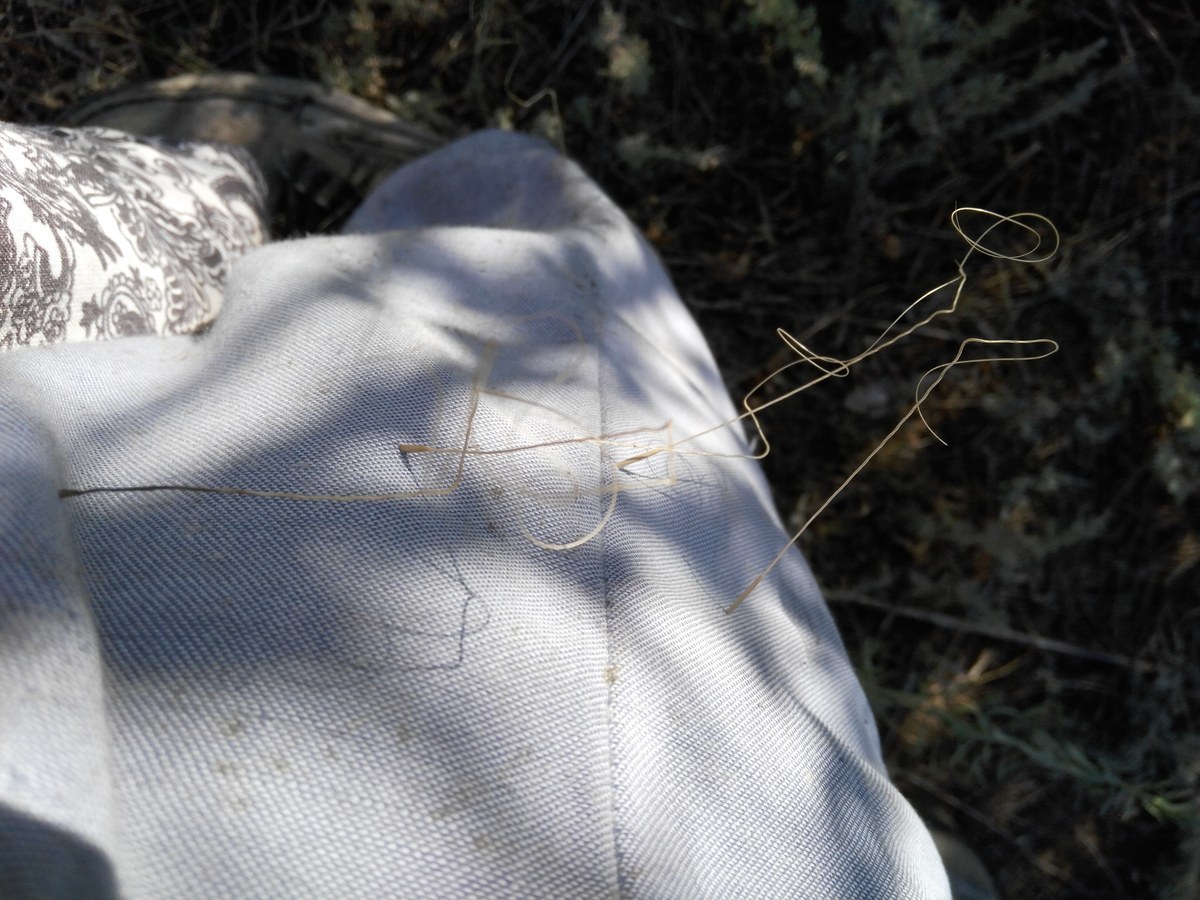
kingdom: Plantae
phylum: Tracheophyta
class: Liliopsida
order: Poales
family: Poaceae
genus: Stipa
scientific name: Stipa capillata
